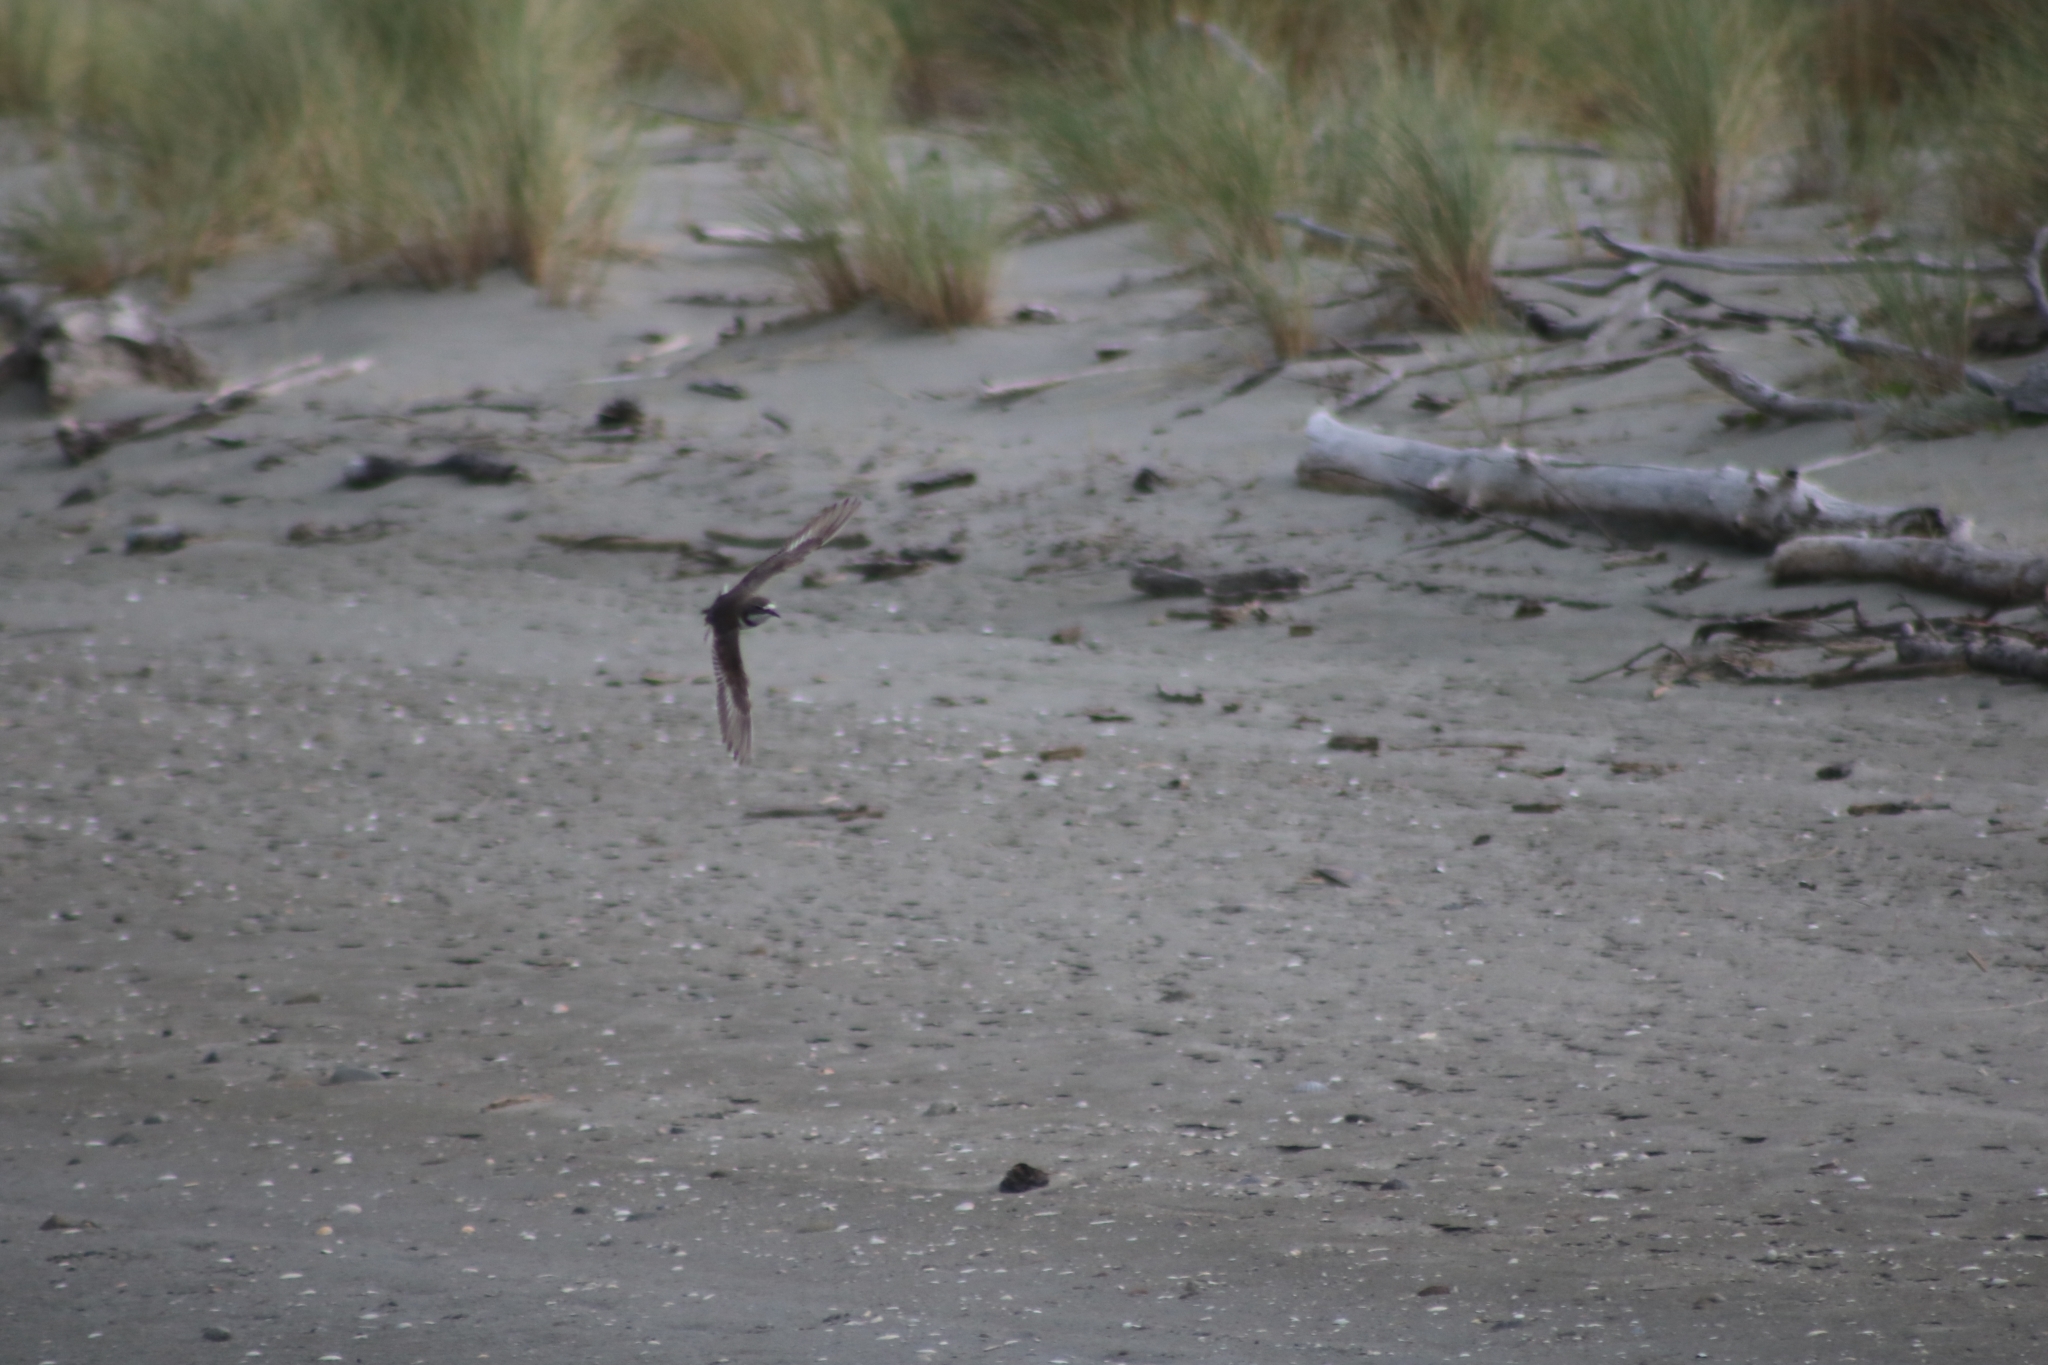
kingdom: Animalia
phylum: Chordata
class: Aves
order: Charadriiformes
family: Charadriidae
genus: Anarhynchus
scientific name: Anarhynchus
